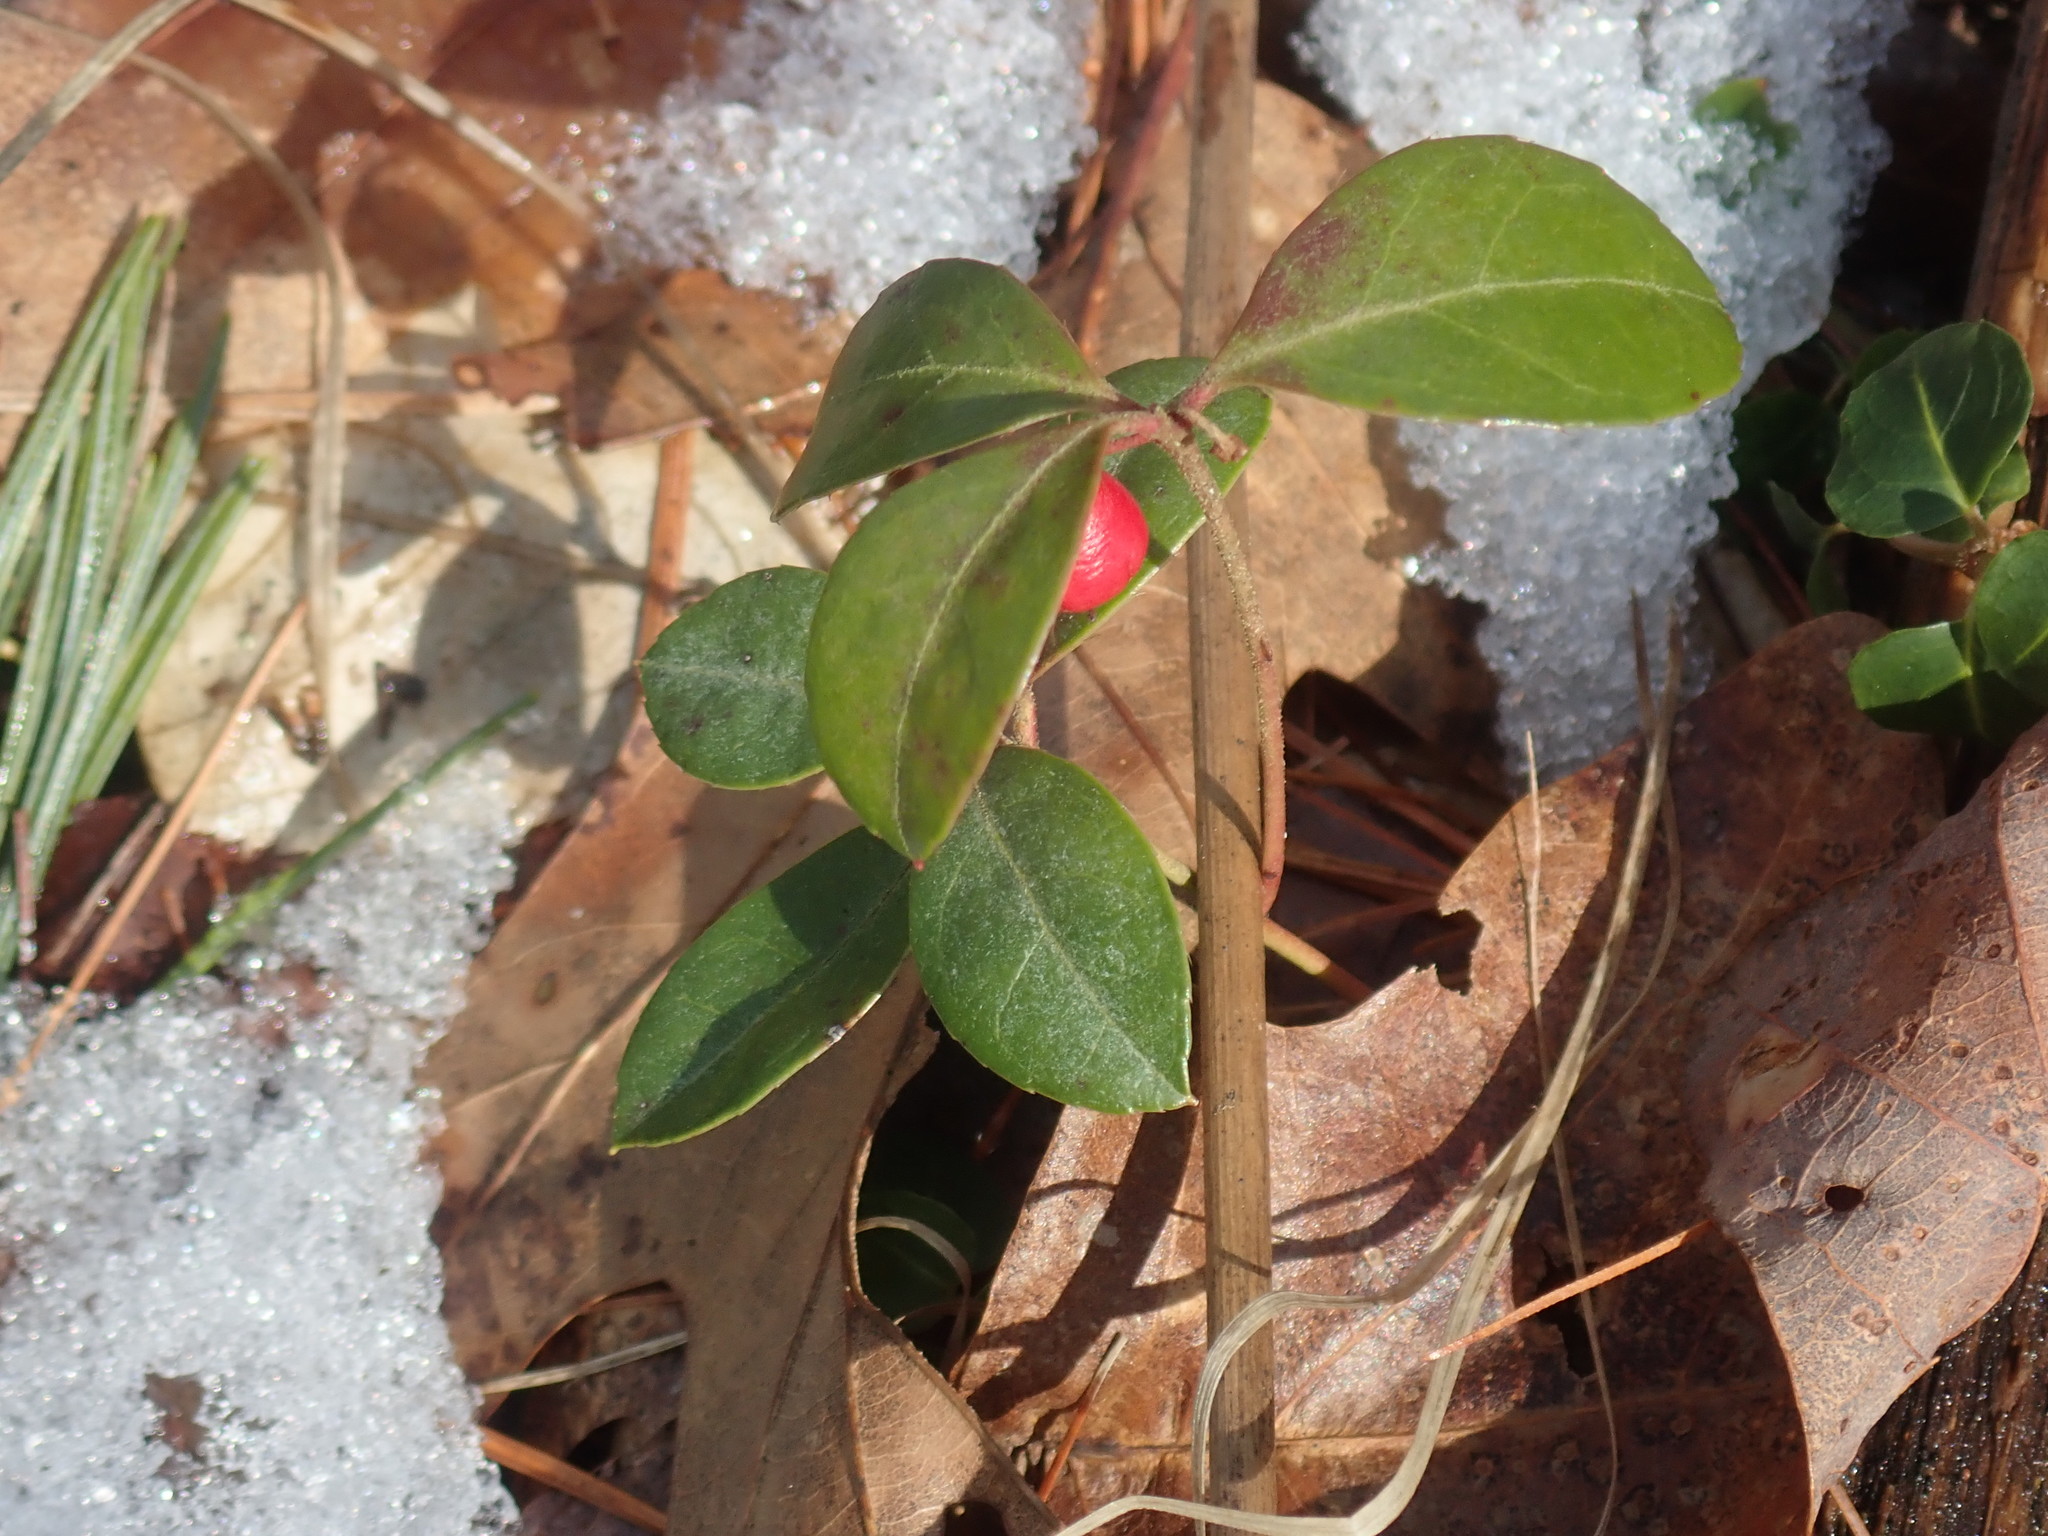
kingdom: Plantae
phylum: Tracheophyta
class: Magnoliopsida
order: Ericales
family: Ericaceae
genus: Gaultheria
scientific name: Gaultheria procumbens
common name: Checkerberry
